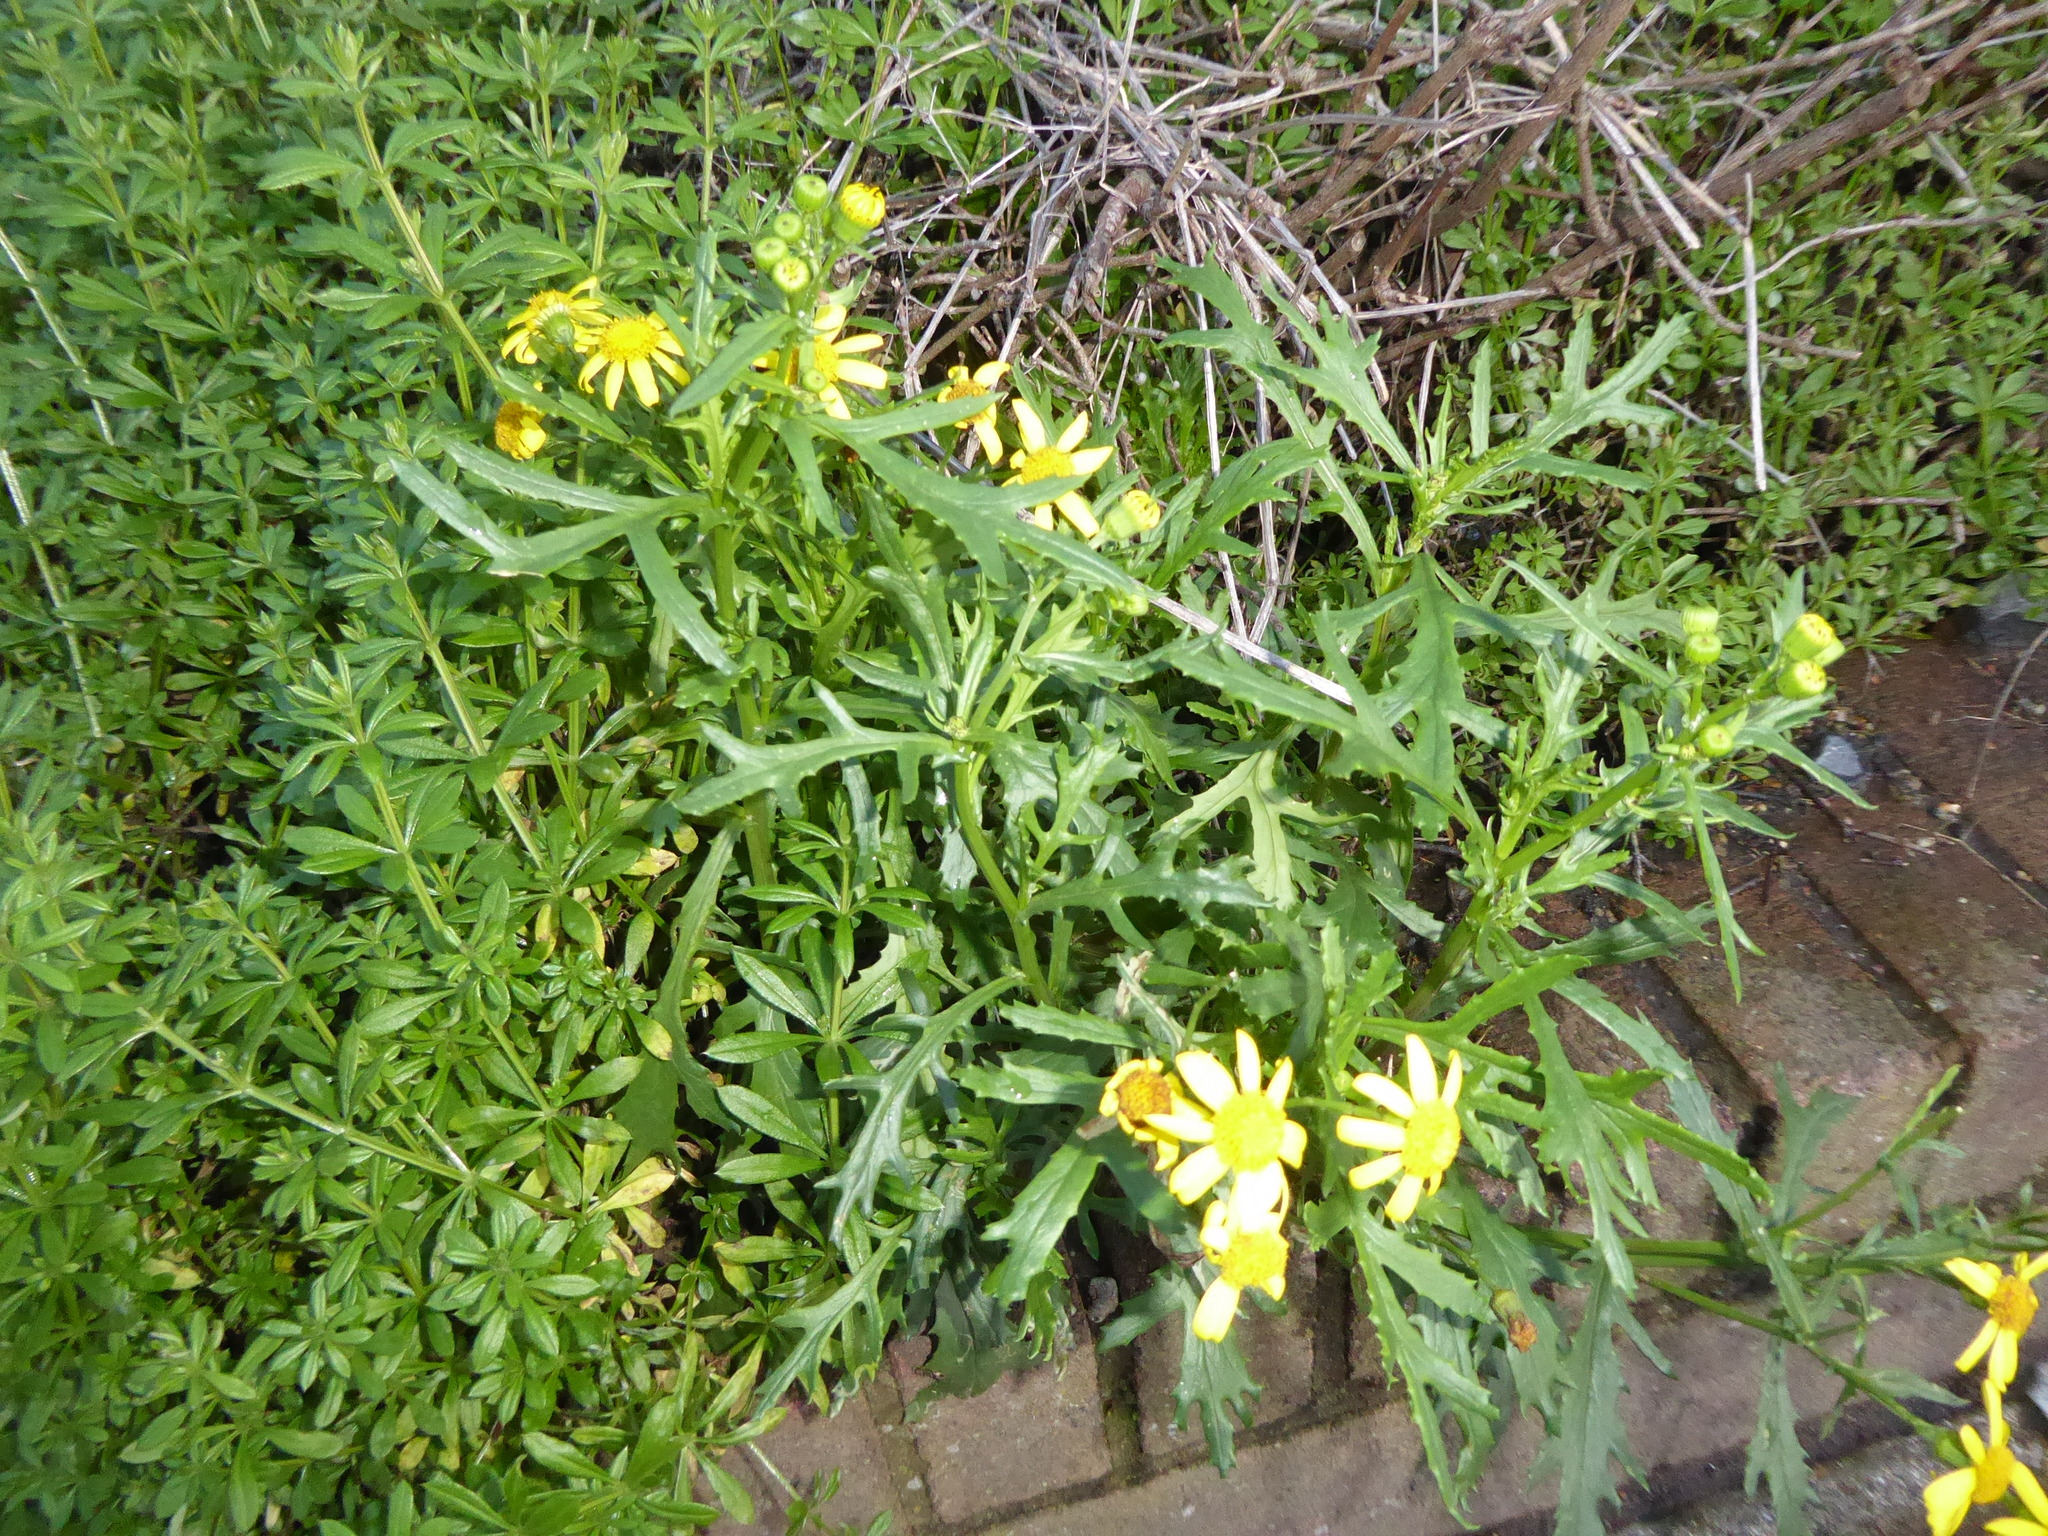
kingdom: Plantae
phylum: Tracheophyta
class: Magnoliopsida
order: Asterales
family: Asteraceae
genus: Senecio
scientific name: Senecio squalidus
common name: Oxford ragwort
